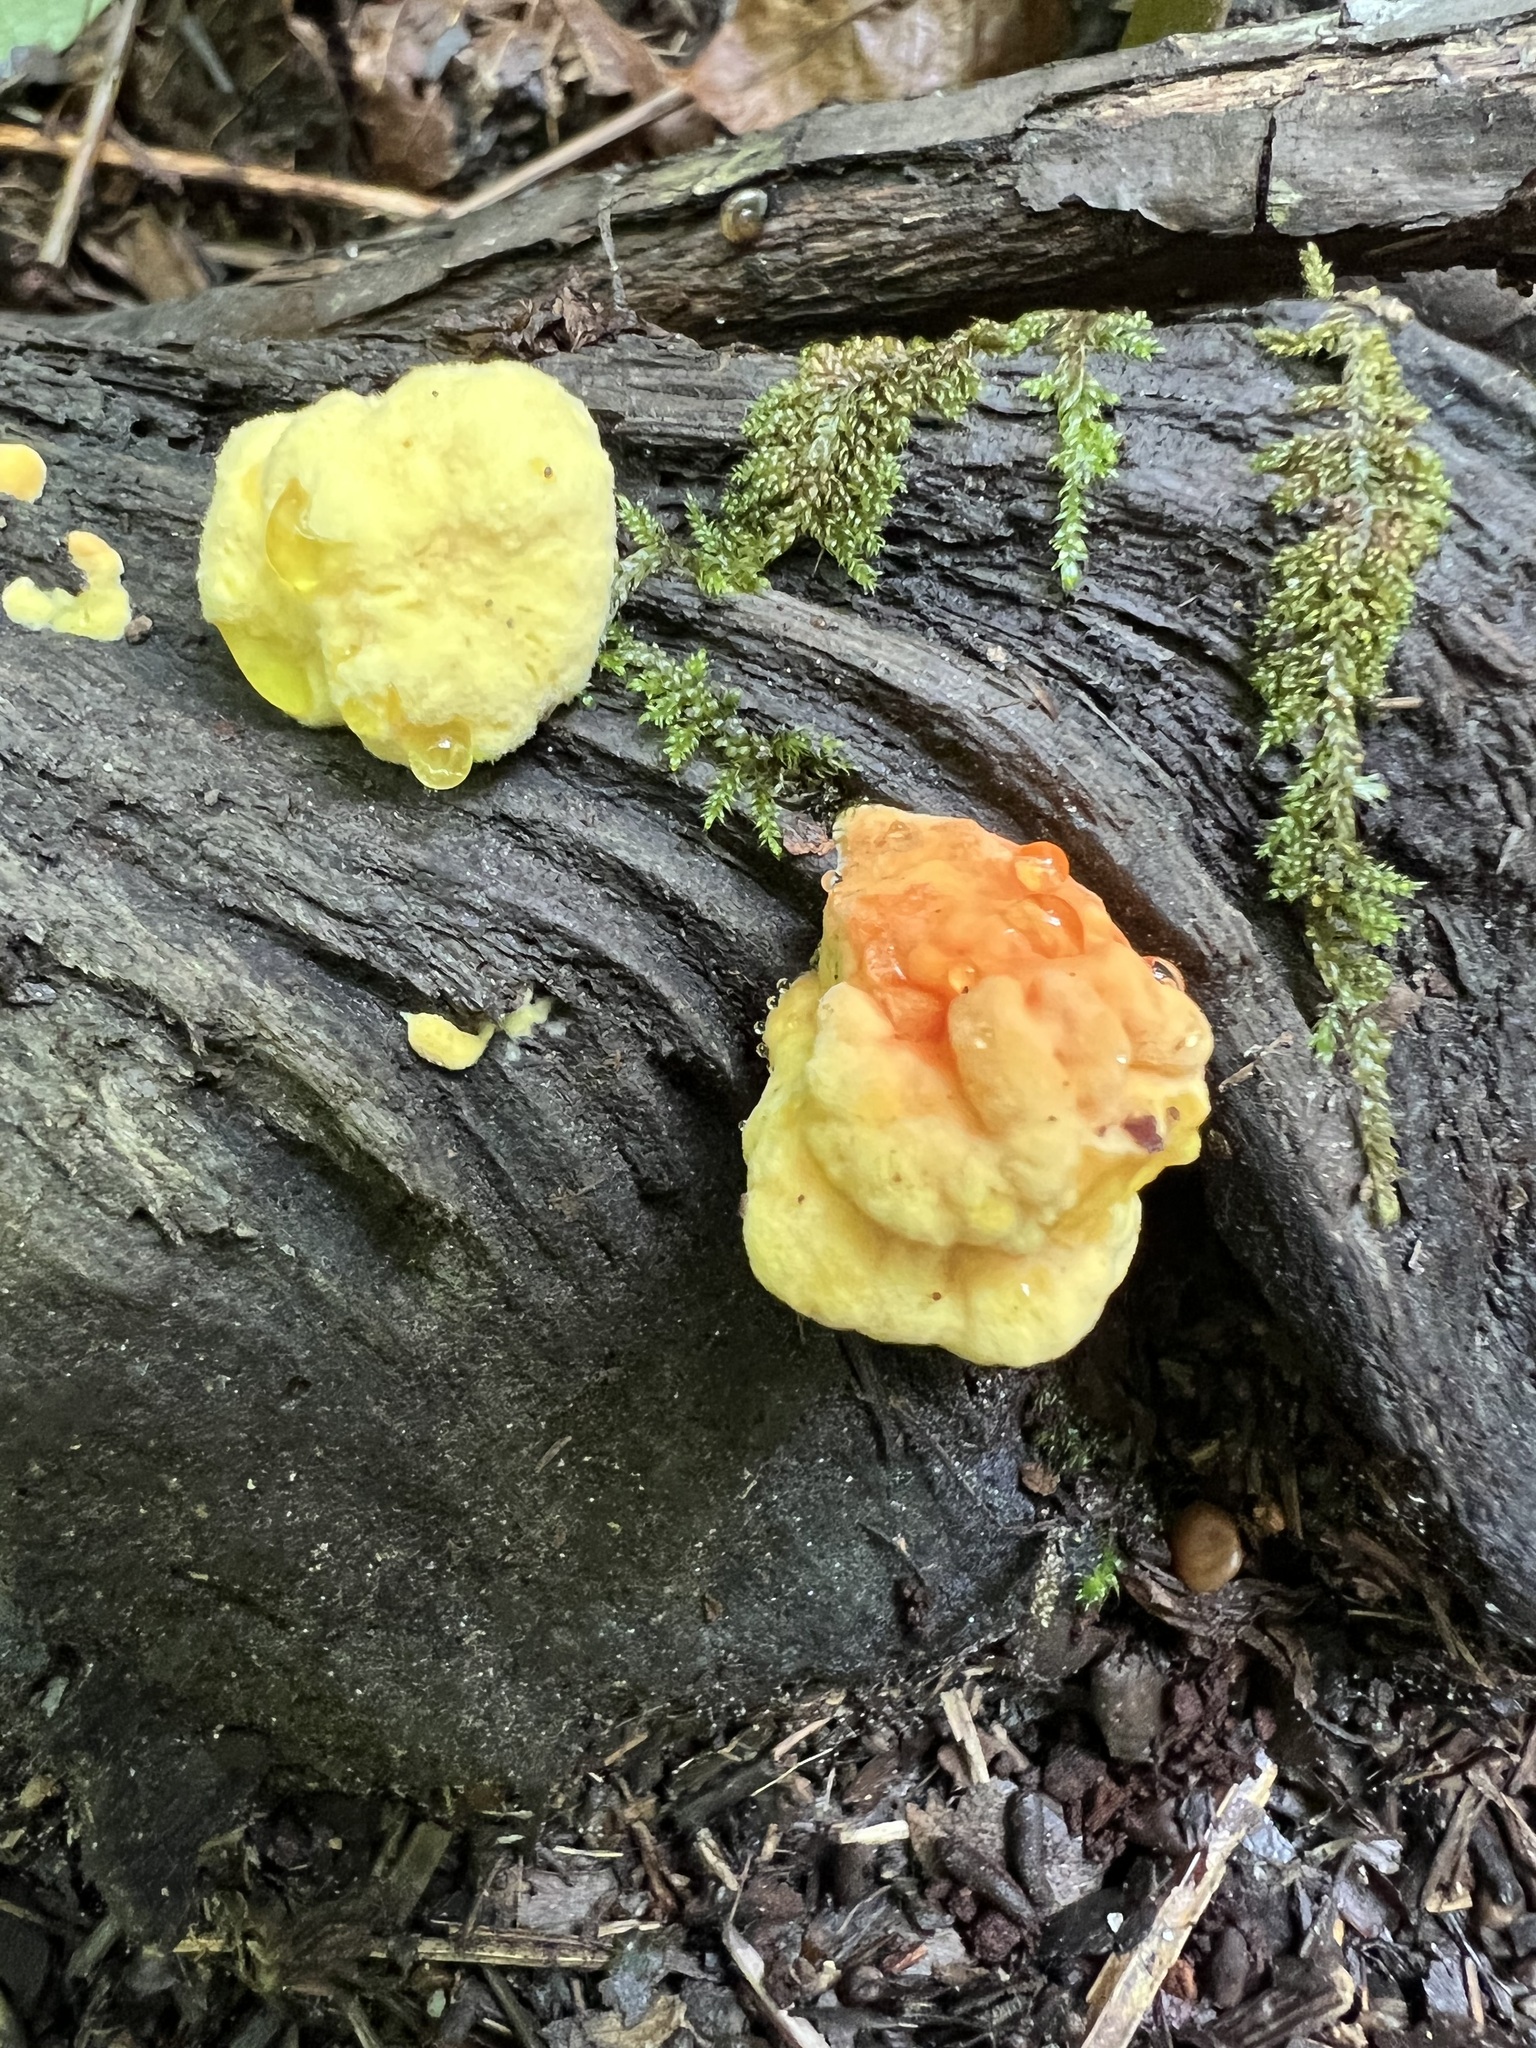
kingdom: Fungi
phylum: Basidiomycota
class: Agaricomycetes
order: Polyporales
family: Laetiporaceae
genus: Laetiporus
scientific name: Laetiporus sulphureus
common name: Chicken of the woods
